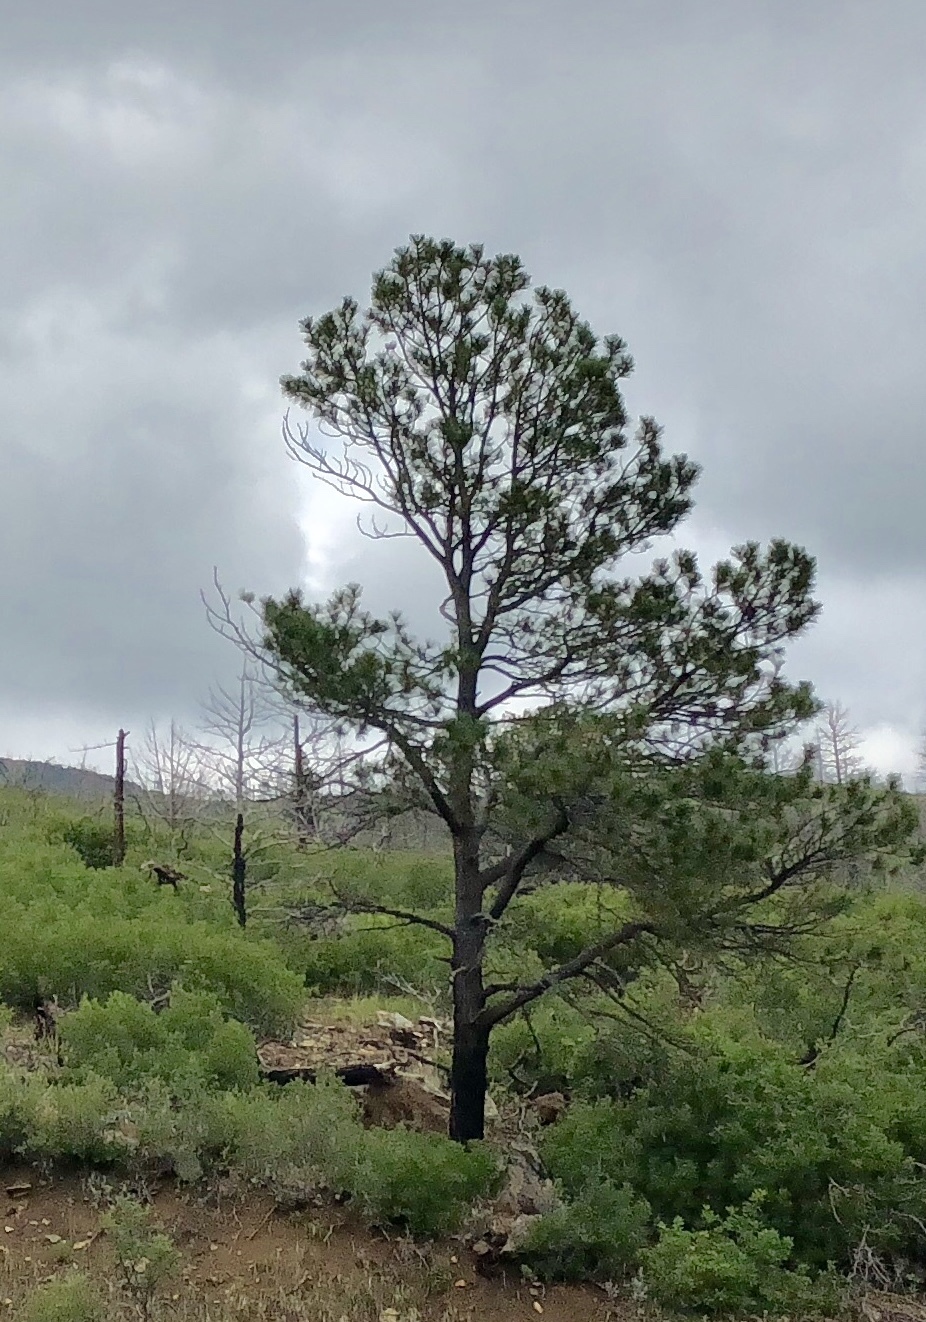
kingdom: Plantae
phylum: Tracheophyta
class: Pinopsida
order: Pinales
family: Pinaceae
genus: Pinus
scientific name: Pinus ponderosa
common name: Western yellow-pine
